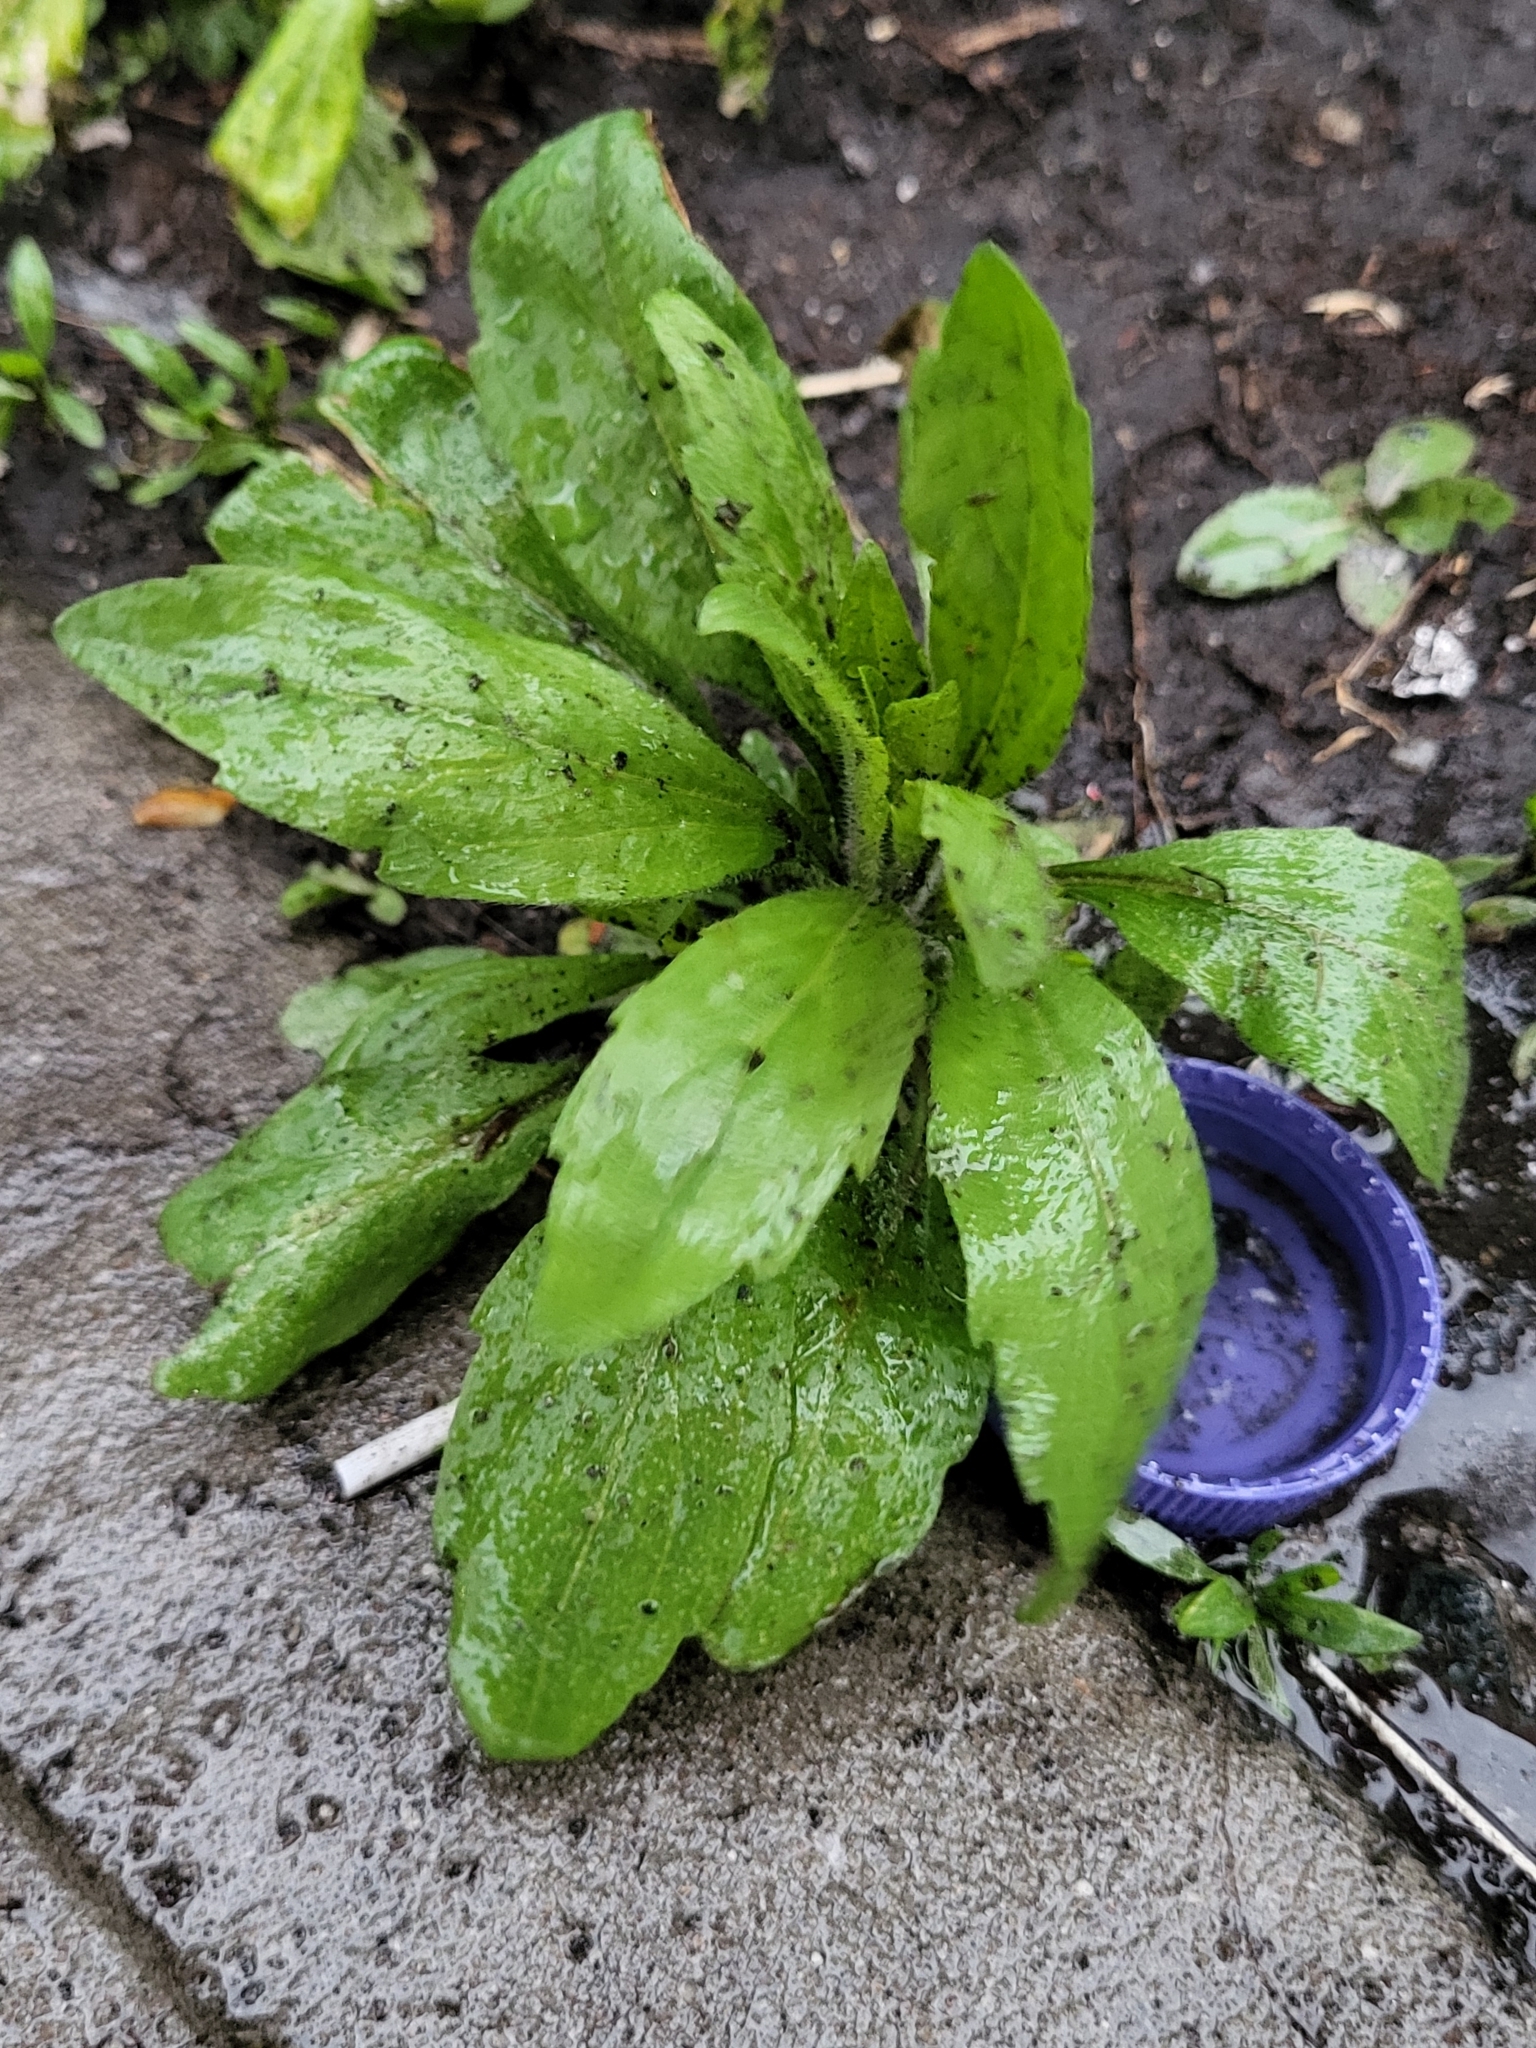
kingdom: Plantae
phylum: Tracheophyta
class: Magnoliopsida
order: Asterales
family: Asteraceae
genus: Erigeron
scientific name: Erigeron canadensis
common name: Canadian fleabane
